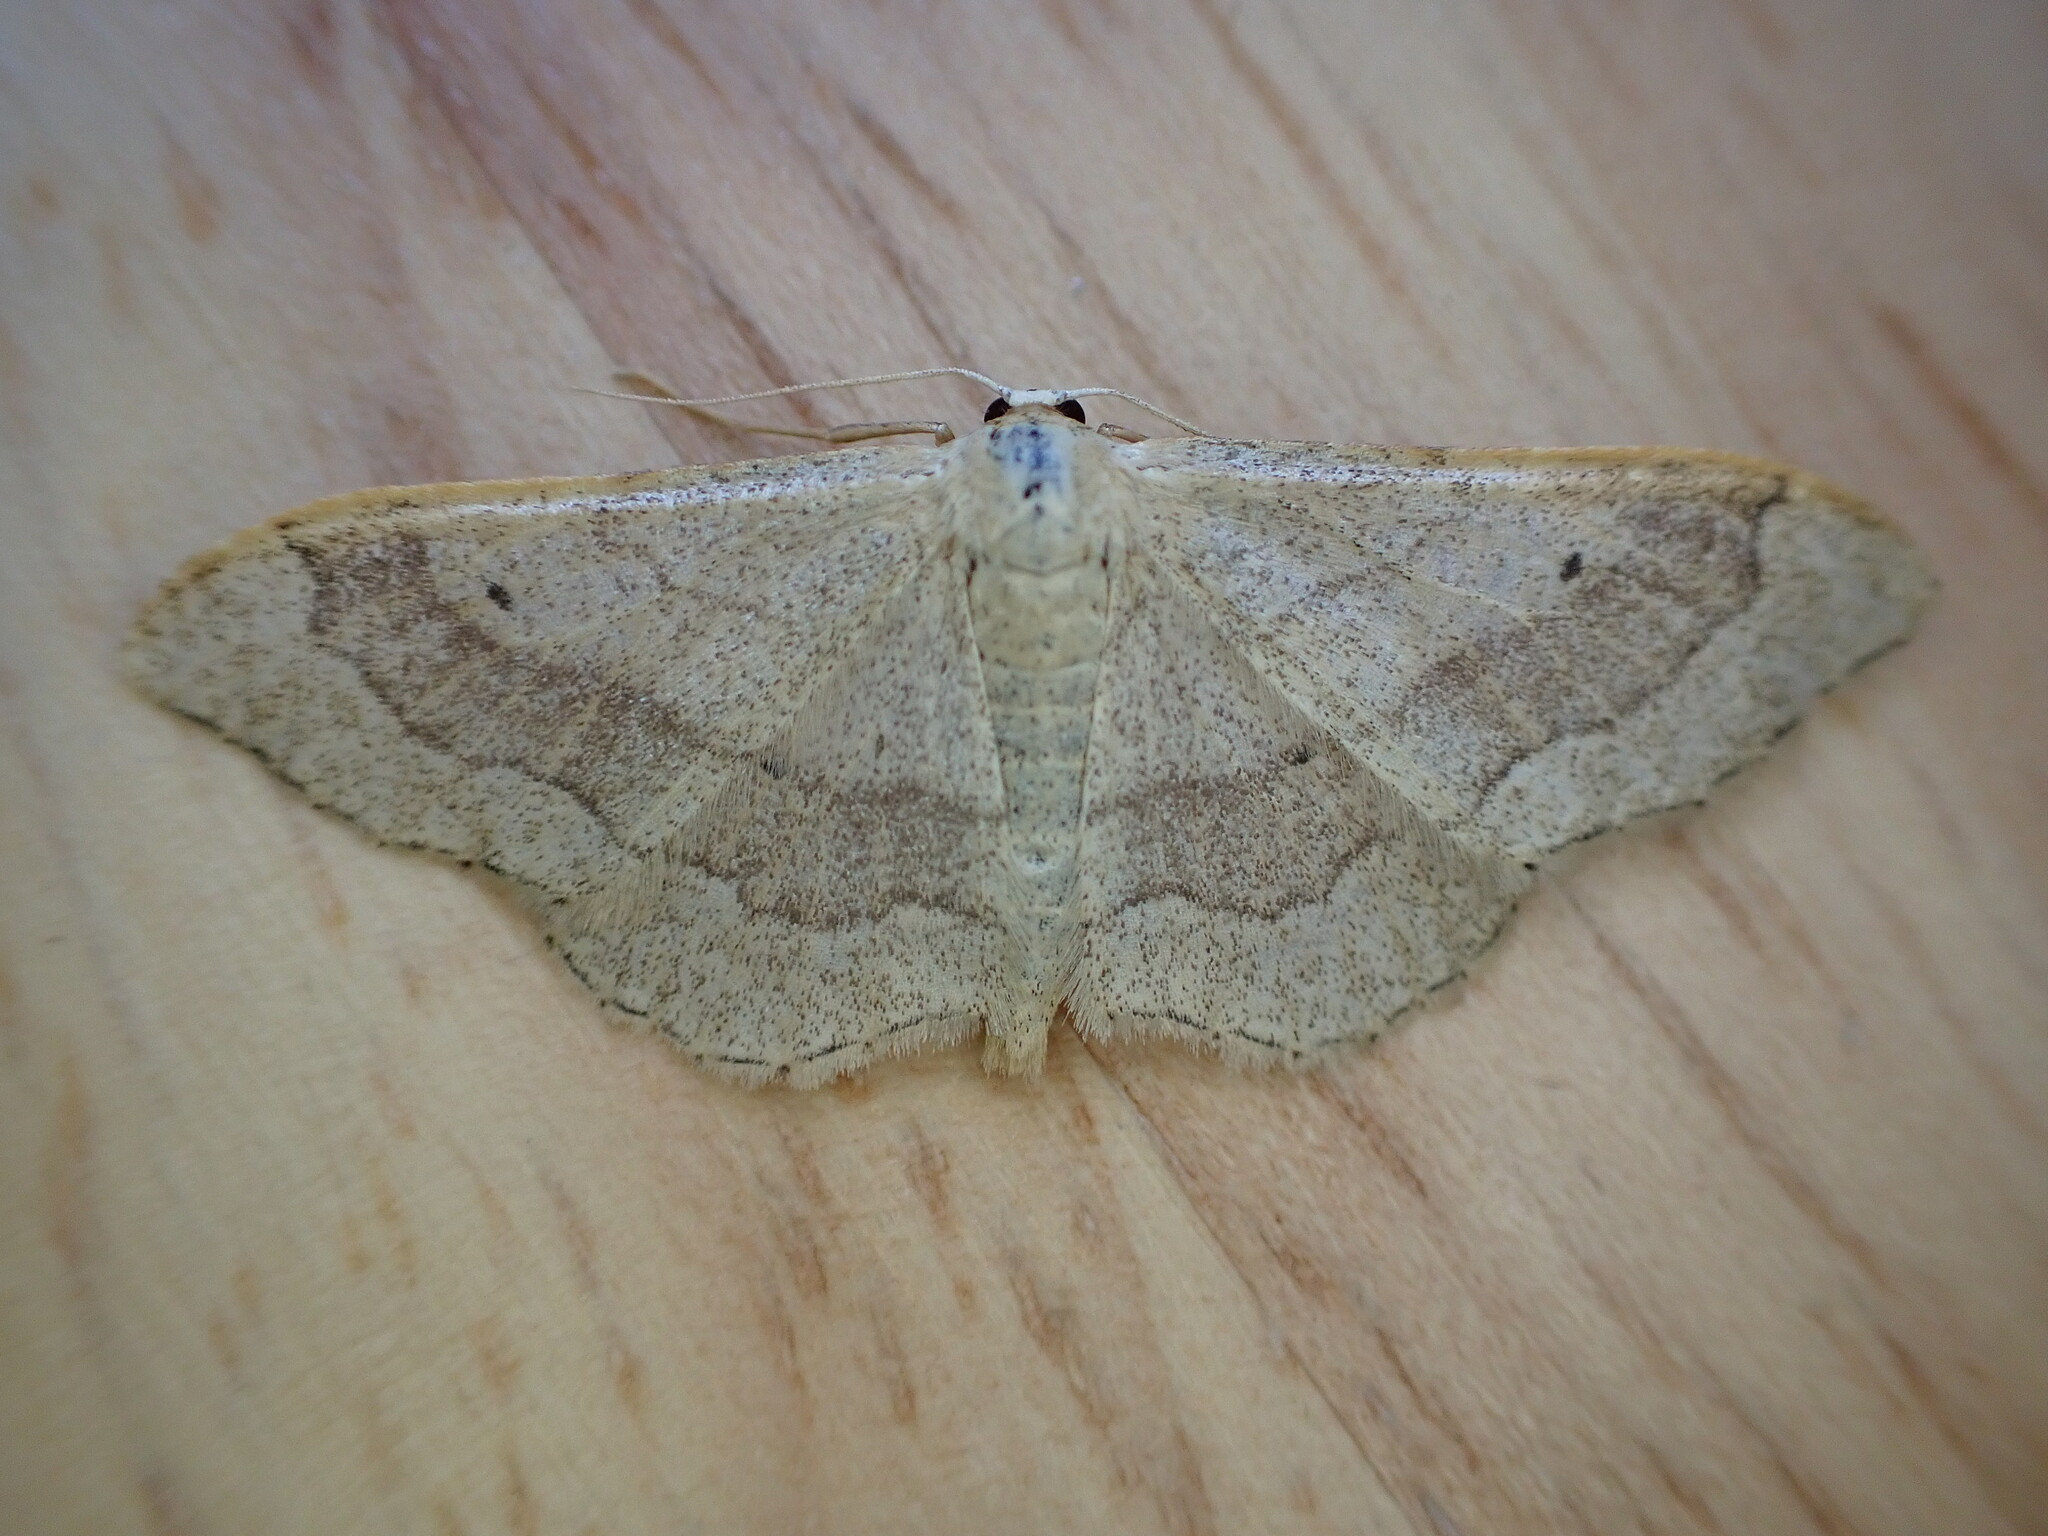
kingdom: Animalia
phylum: Arthropoda
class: Insecta
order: Lepidoptera
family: Geometridae
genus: Idaea
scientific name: Idaea aversata
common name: Riband wave
